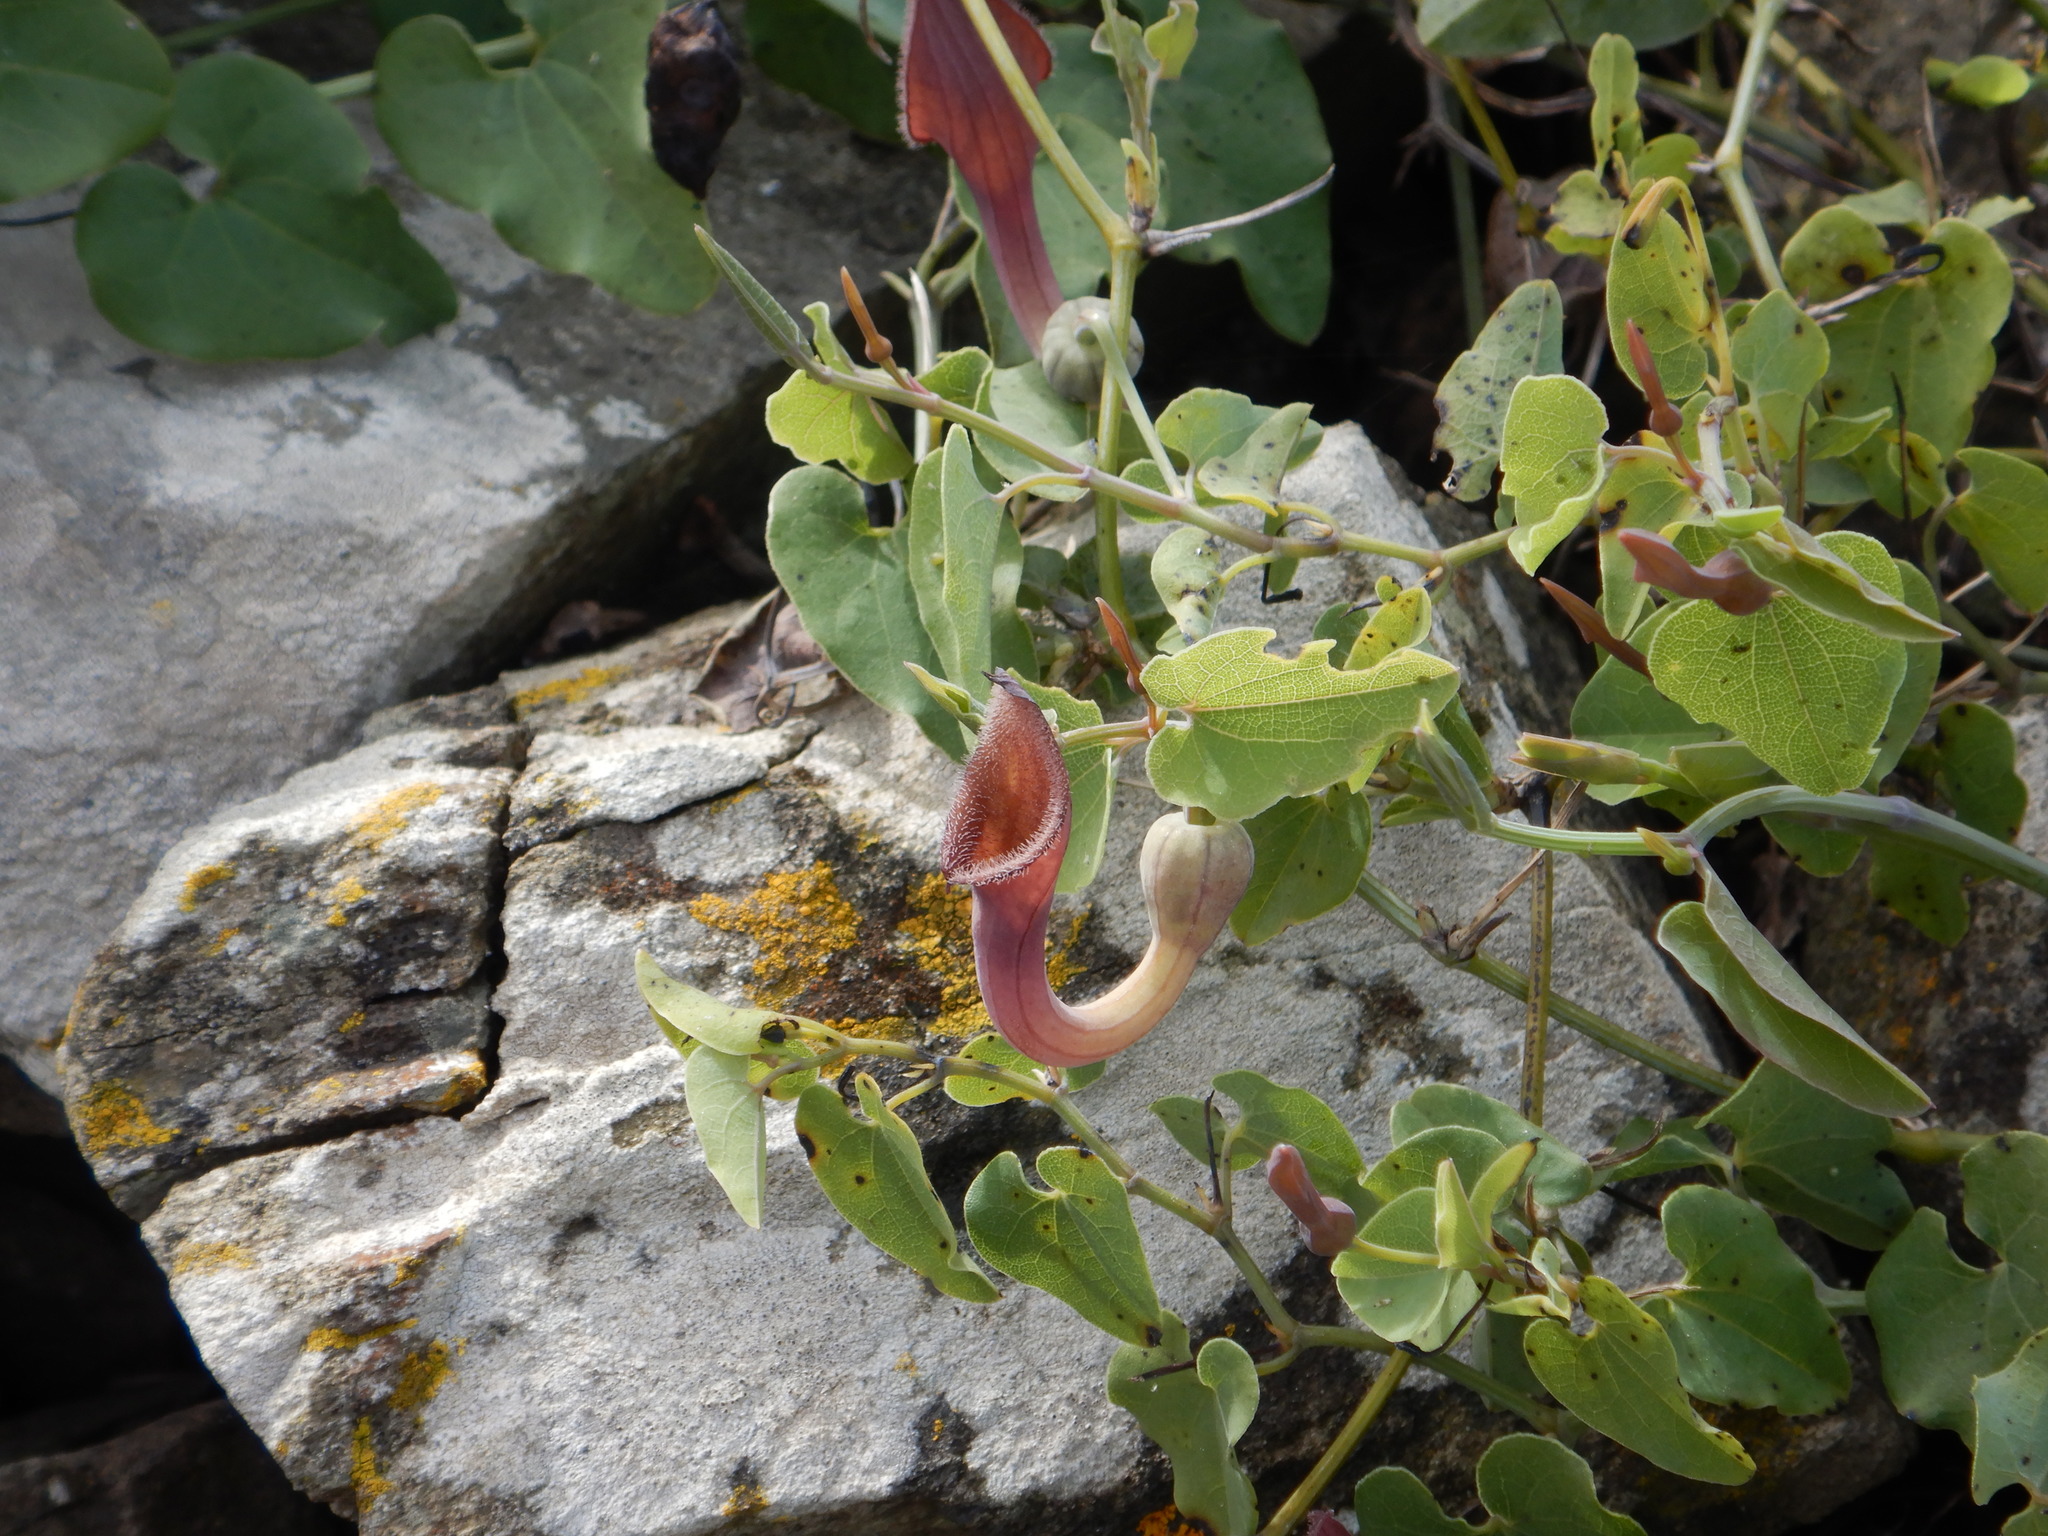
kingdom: Plantae
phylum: Tracheophyta
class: Magnoliopsida
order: Piperales
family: Aristolochiaceae
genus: Aristolochia
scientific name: Aristolochia baetica
